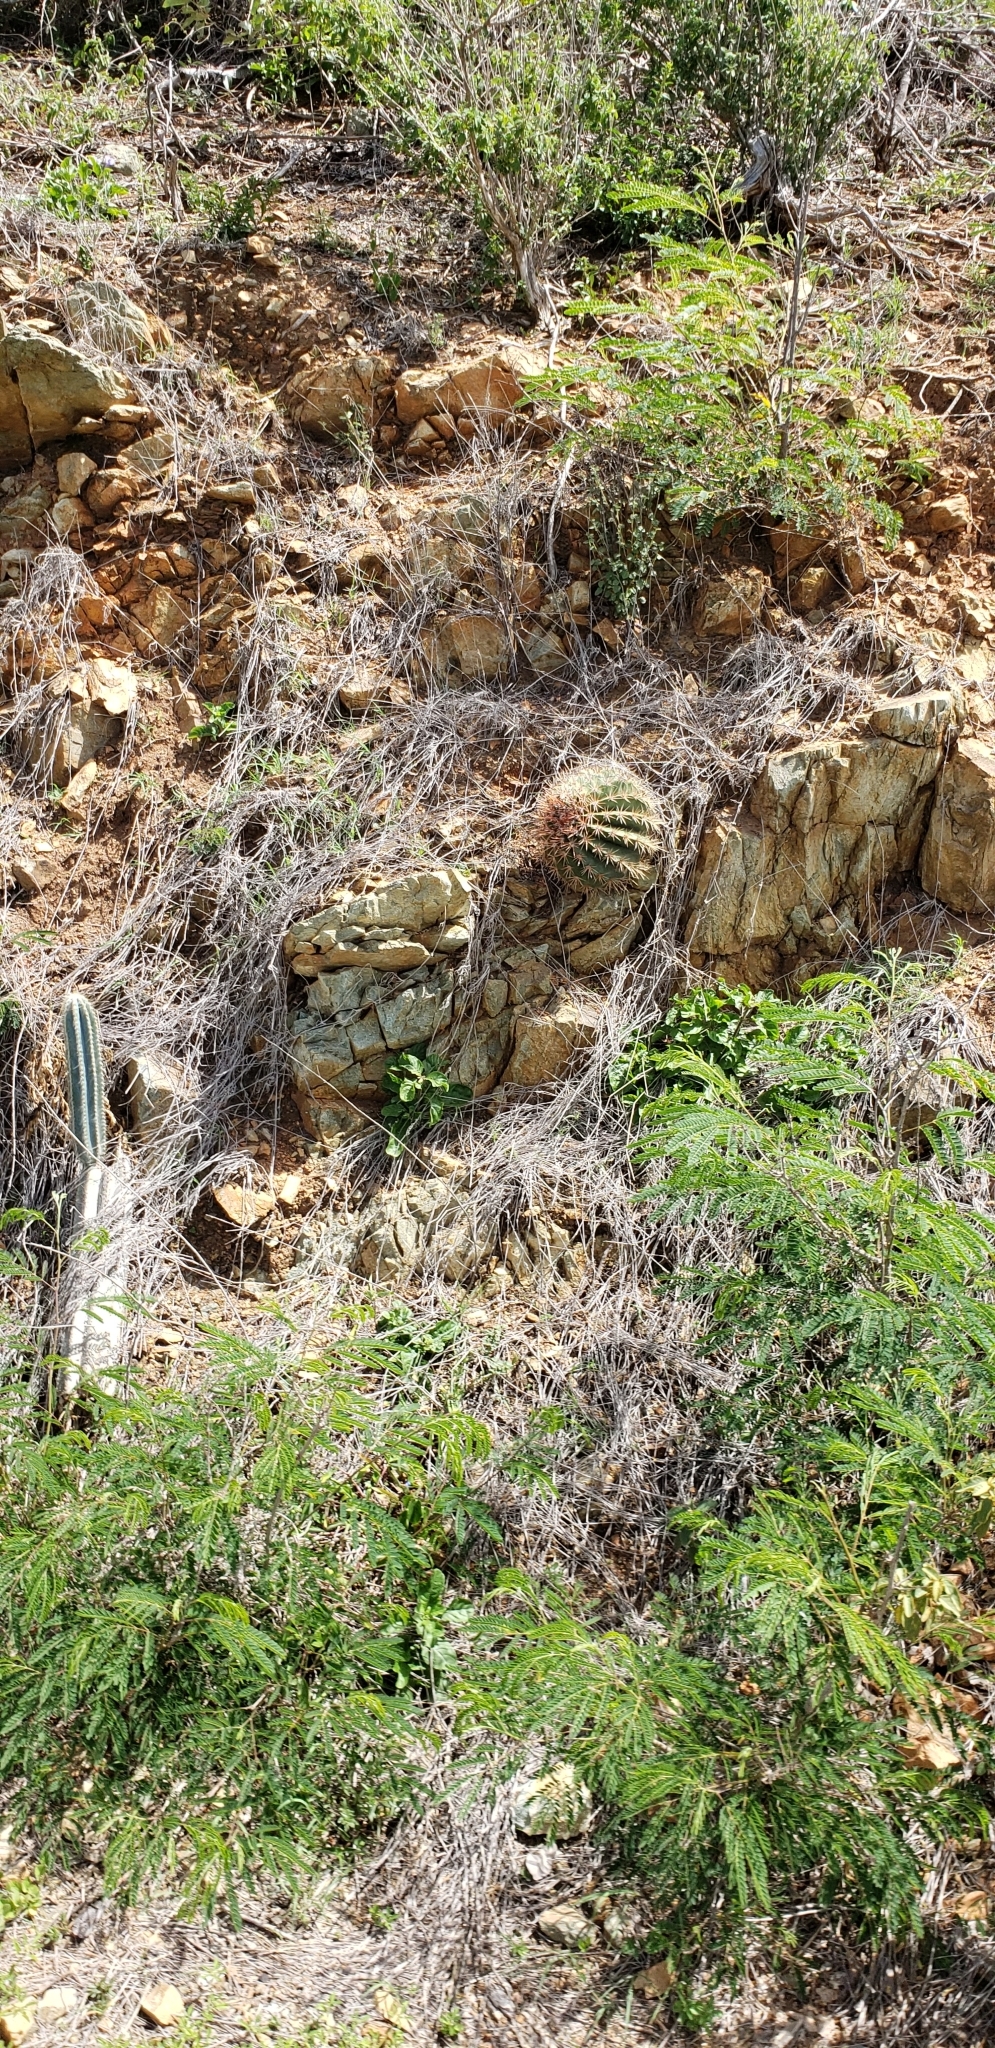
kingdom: Plantae
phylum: Tracheophyta
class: Magnoliopsida
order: Caryophyllales
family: Cactaceae
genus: Melocactus
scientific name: Melocactus intortus
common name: Barrel cactus
